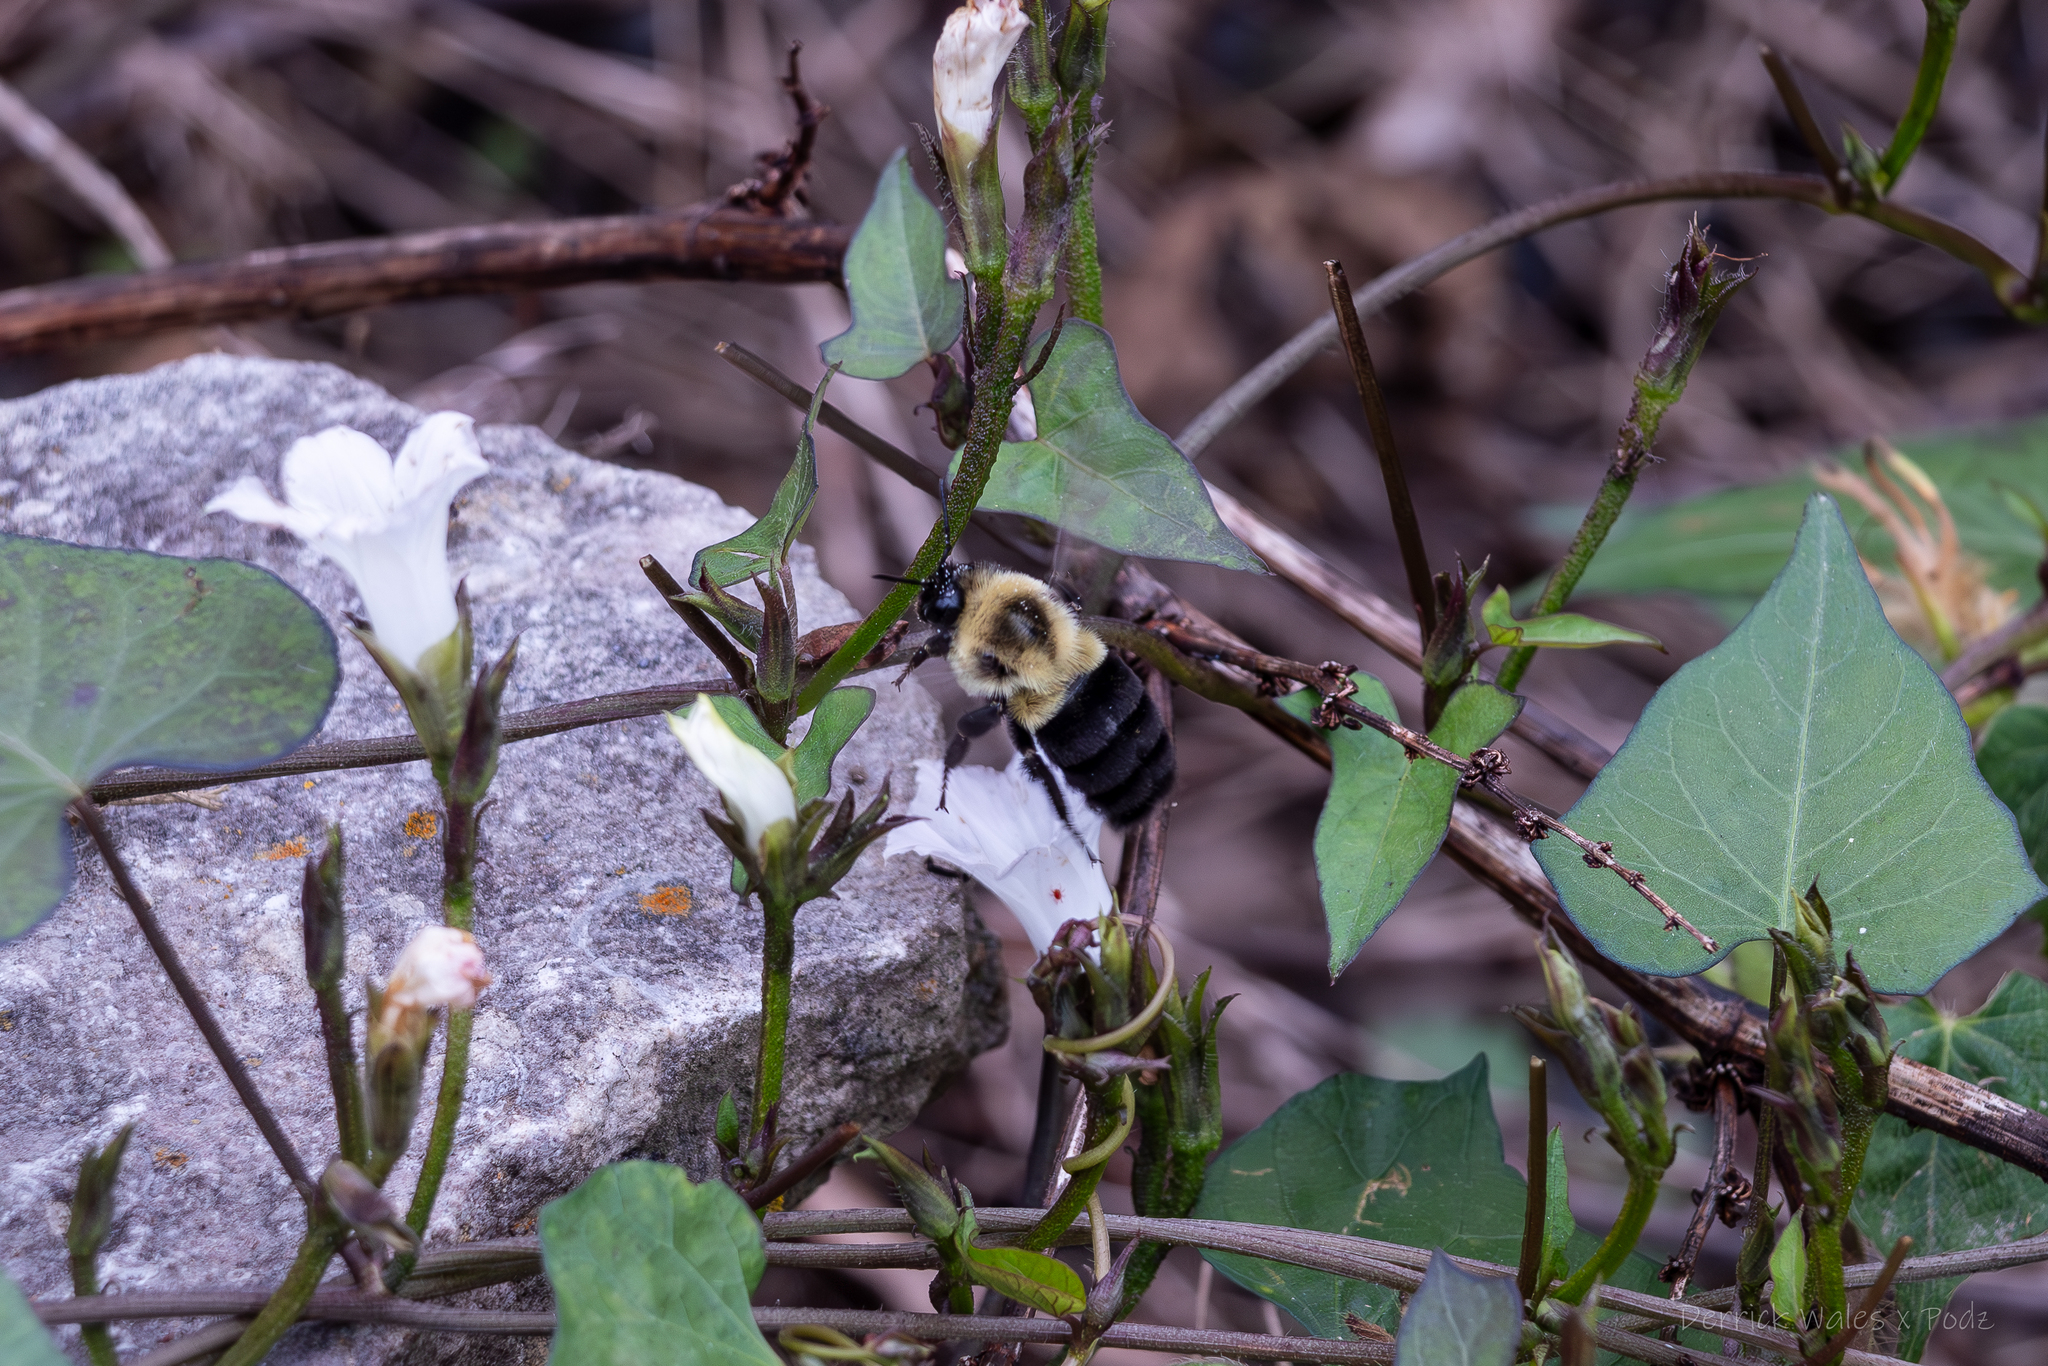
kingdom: Animalia
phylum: Arthropoda
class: Insecta
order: Hymenoptera
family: Apidae
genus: Bombus
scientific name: Bombus impatiens
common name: Common eastern bumble bee
